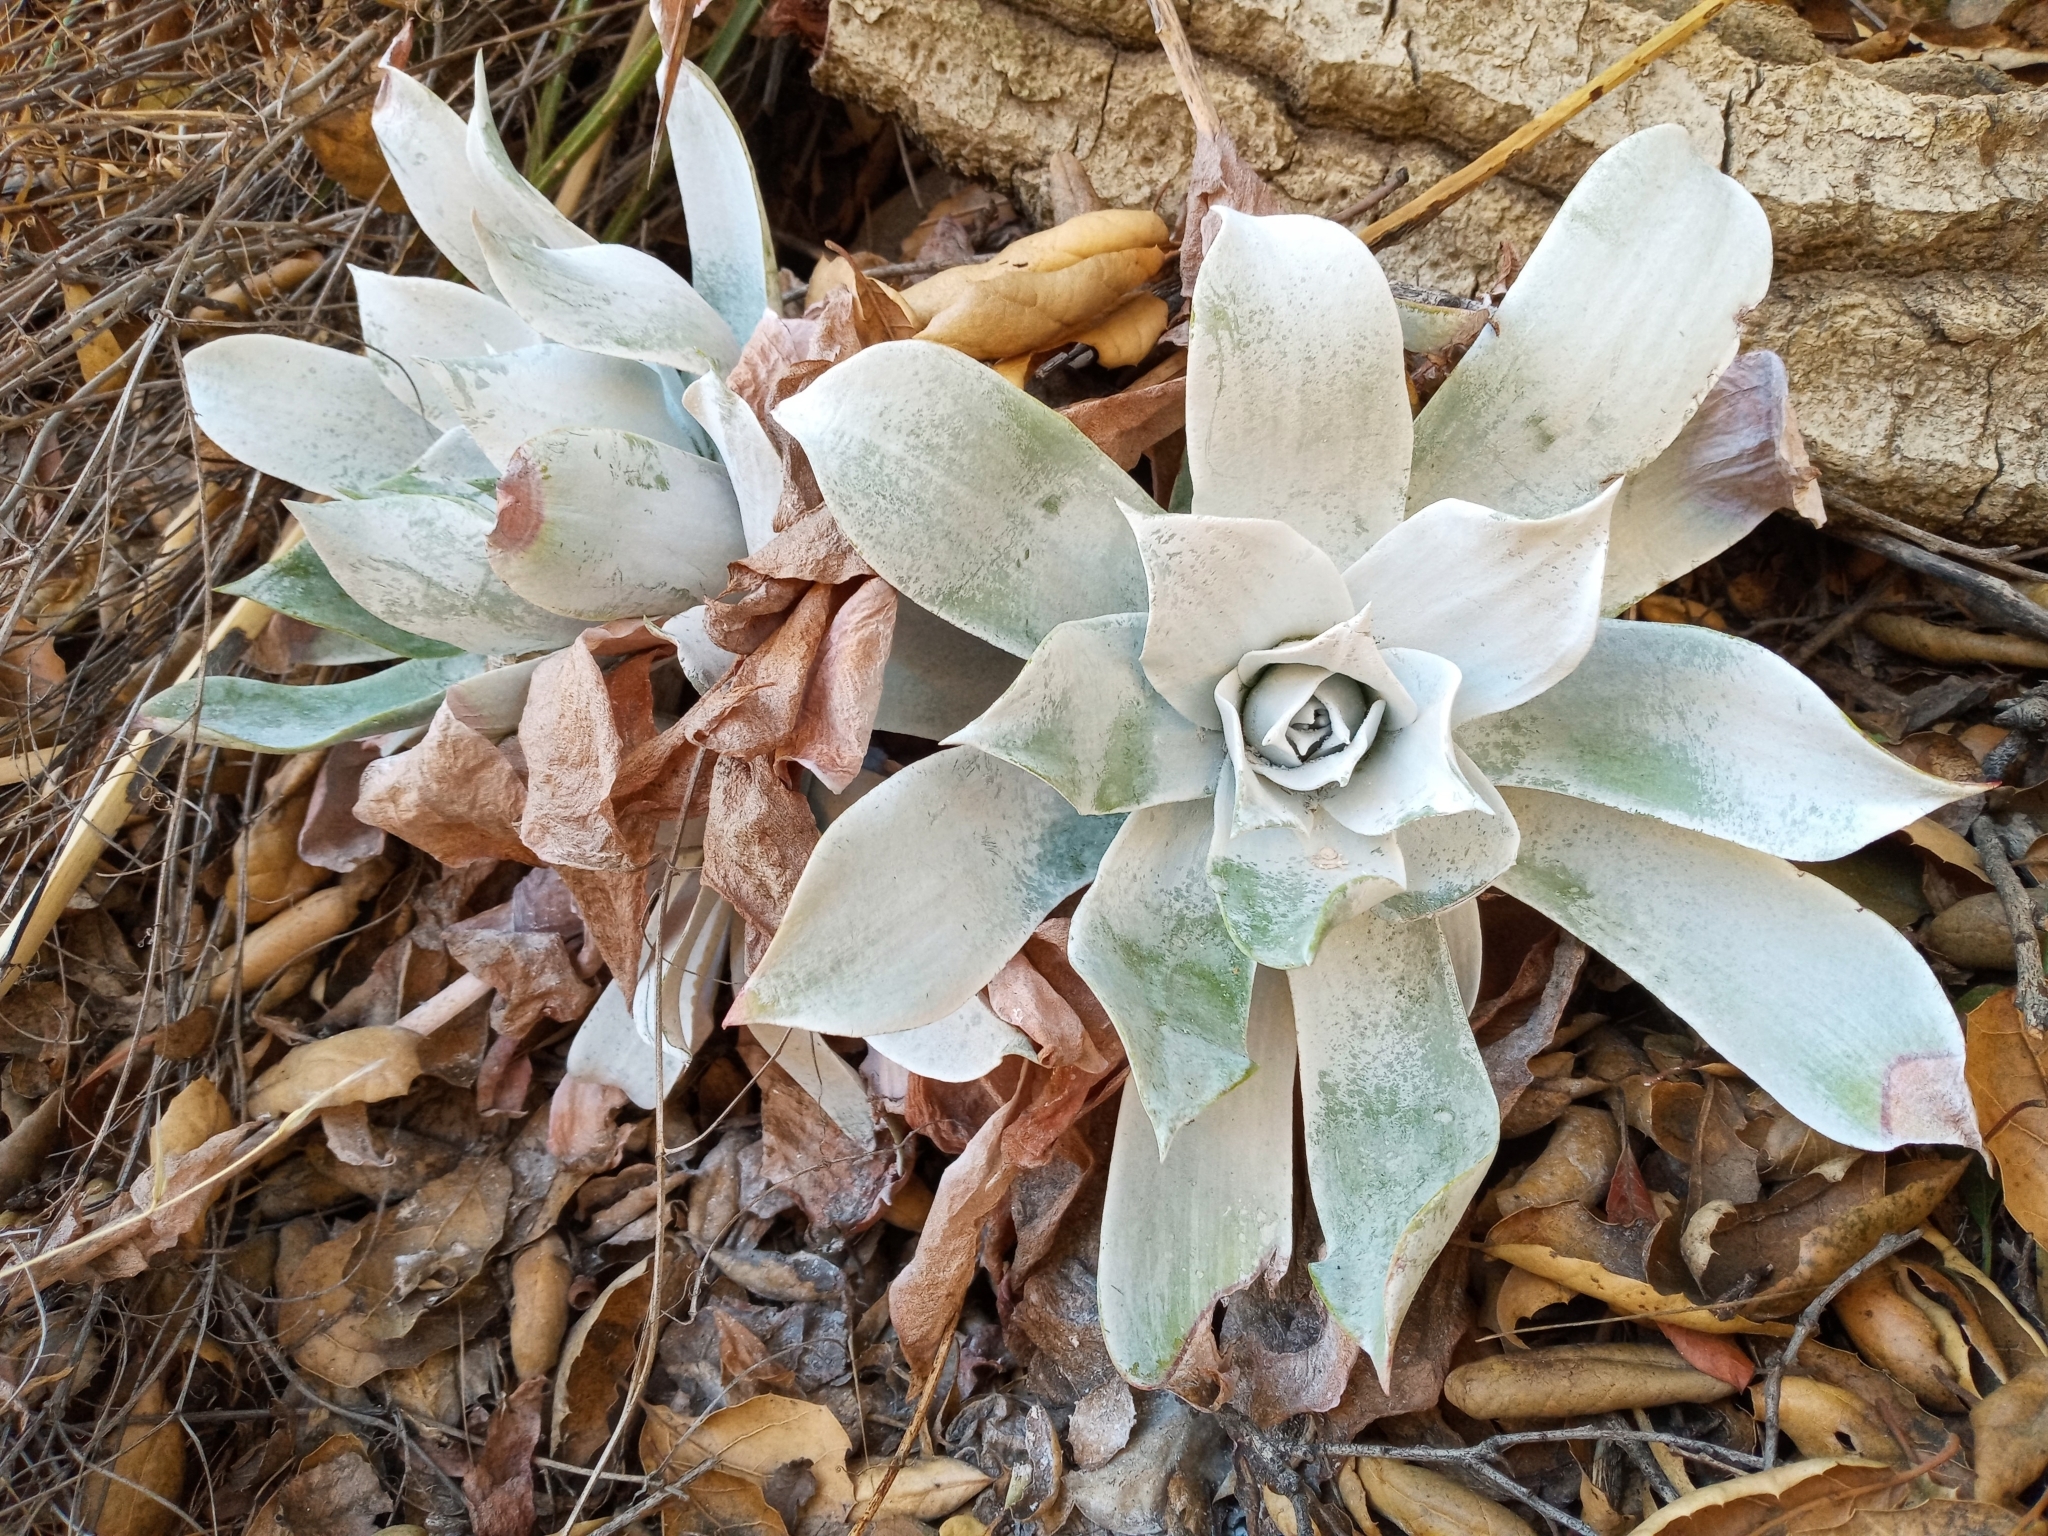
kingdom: Plantae
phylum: Tracheophyta
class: Magnoliopsida
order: Saxifragales
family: Crassulaceae
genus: Dudleya
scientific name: Dudleya pulverulenta
